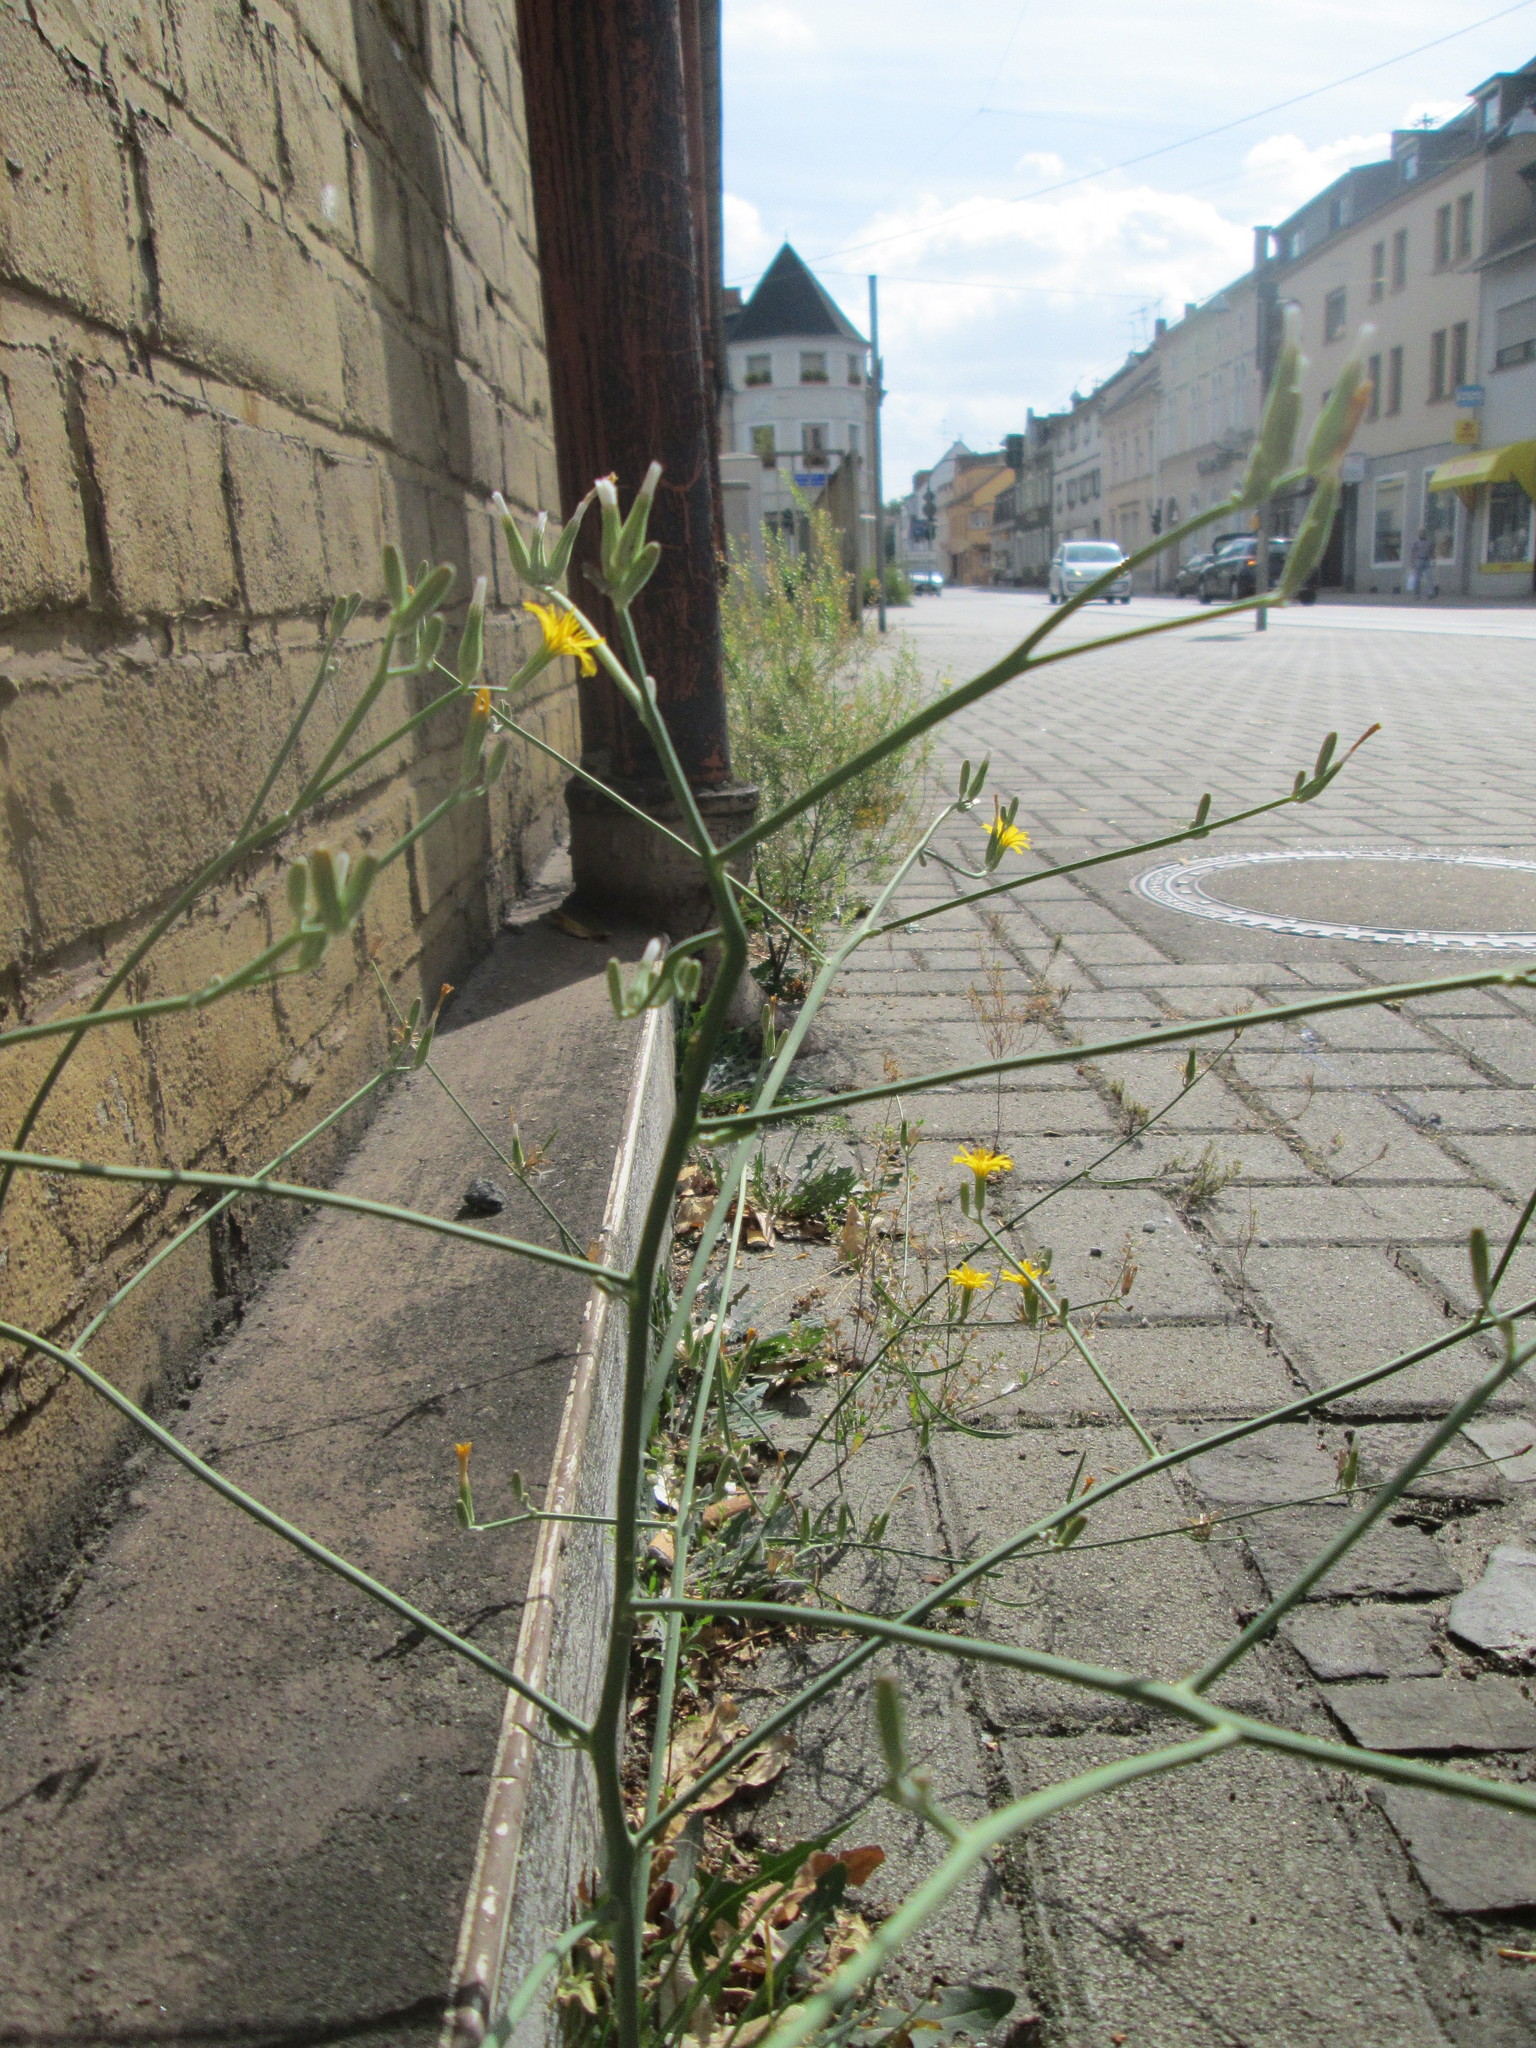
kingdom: Plantae
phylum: Tracheophyta
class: Magnoliopsida
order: Asterales
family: Asteraceae
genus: Chondrilla
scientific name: Chondrilla juncea
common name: Skeleton weed
